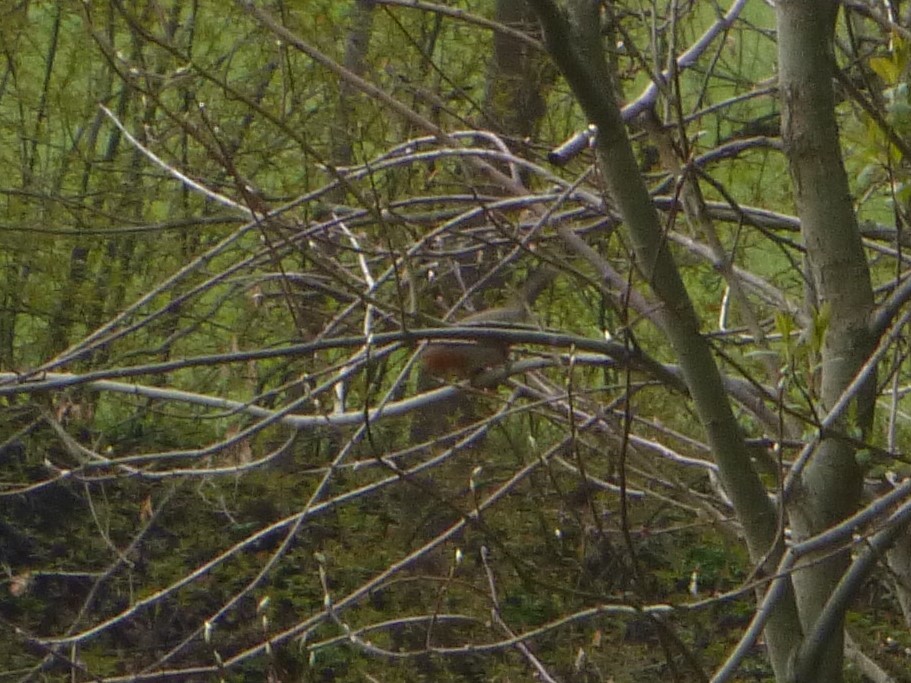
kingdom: Animalia
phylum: Chordata
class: Aves
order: Passeriformes
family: Muscicapidae
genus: Erithacus
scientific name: Erithacus rubecula
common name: European robin
